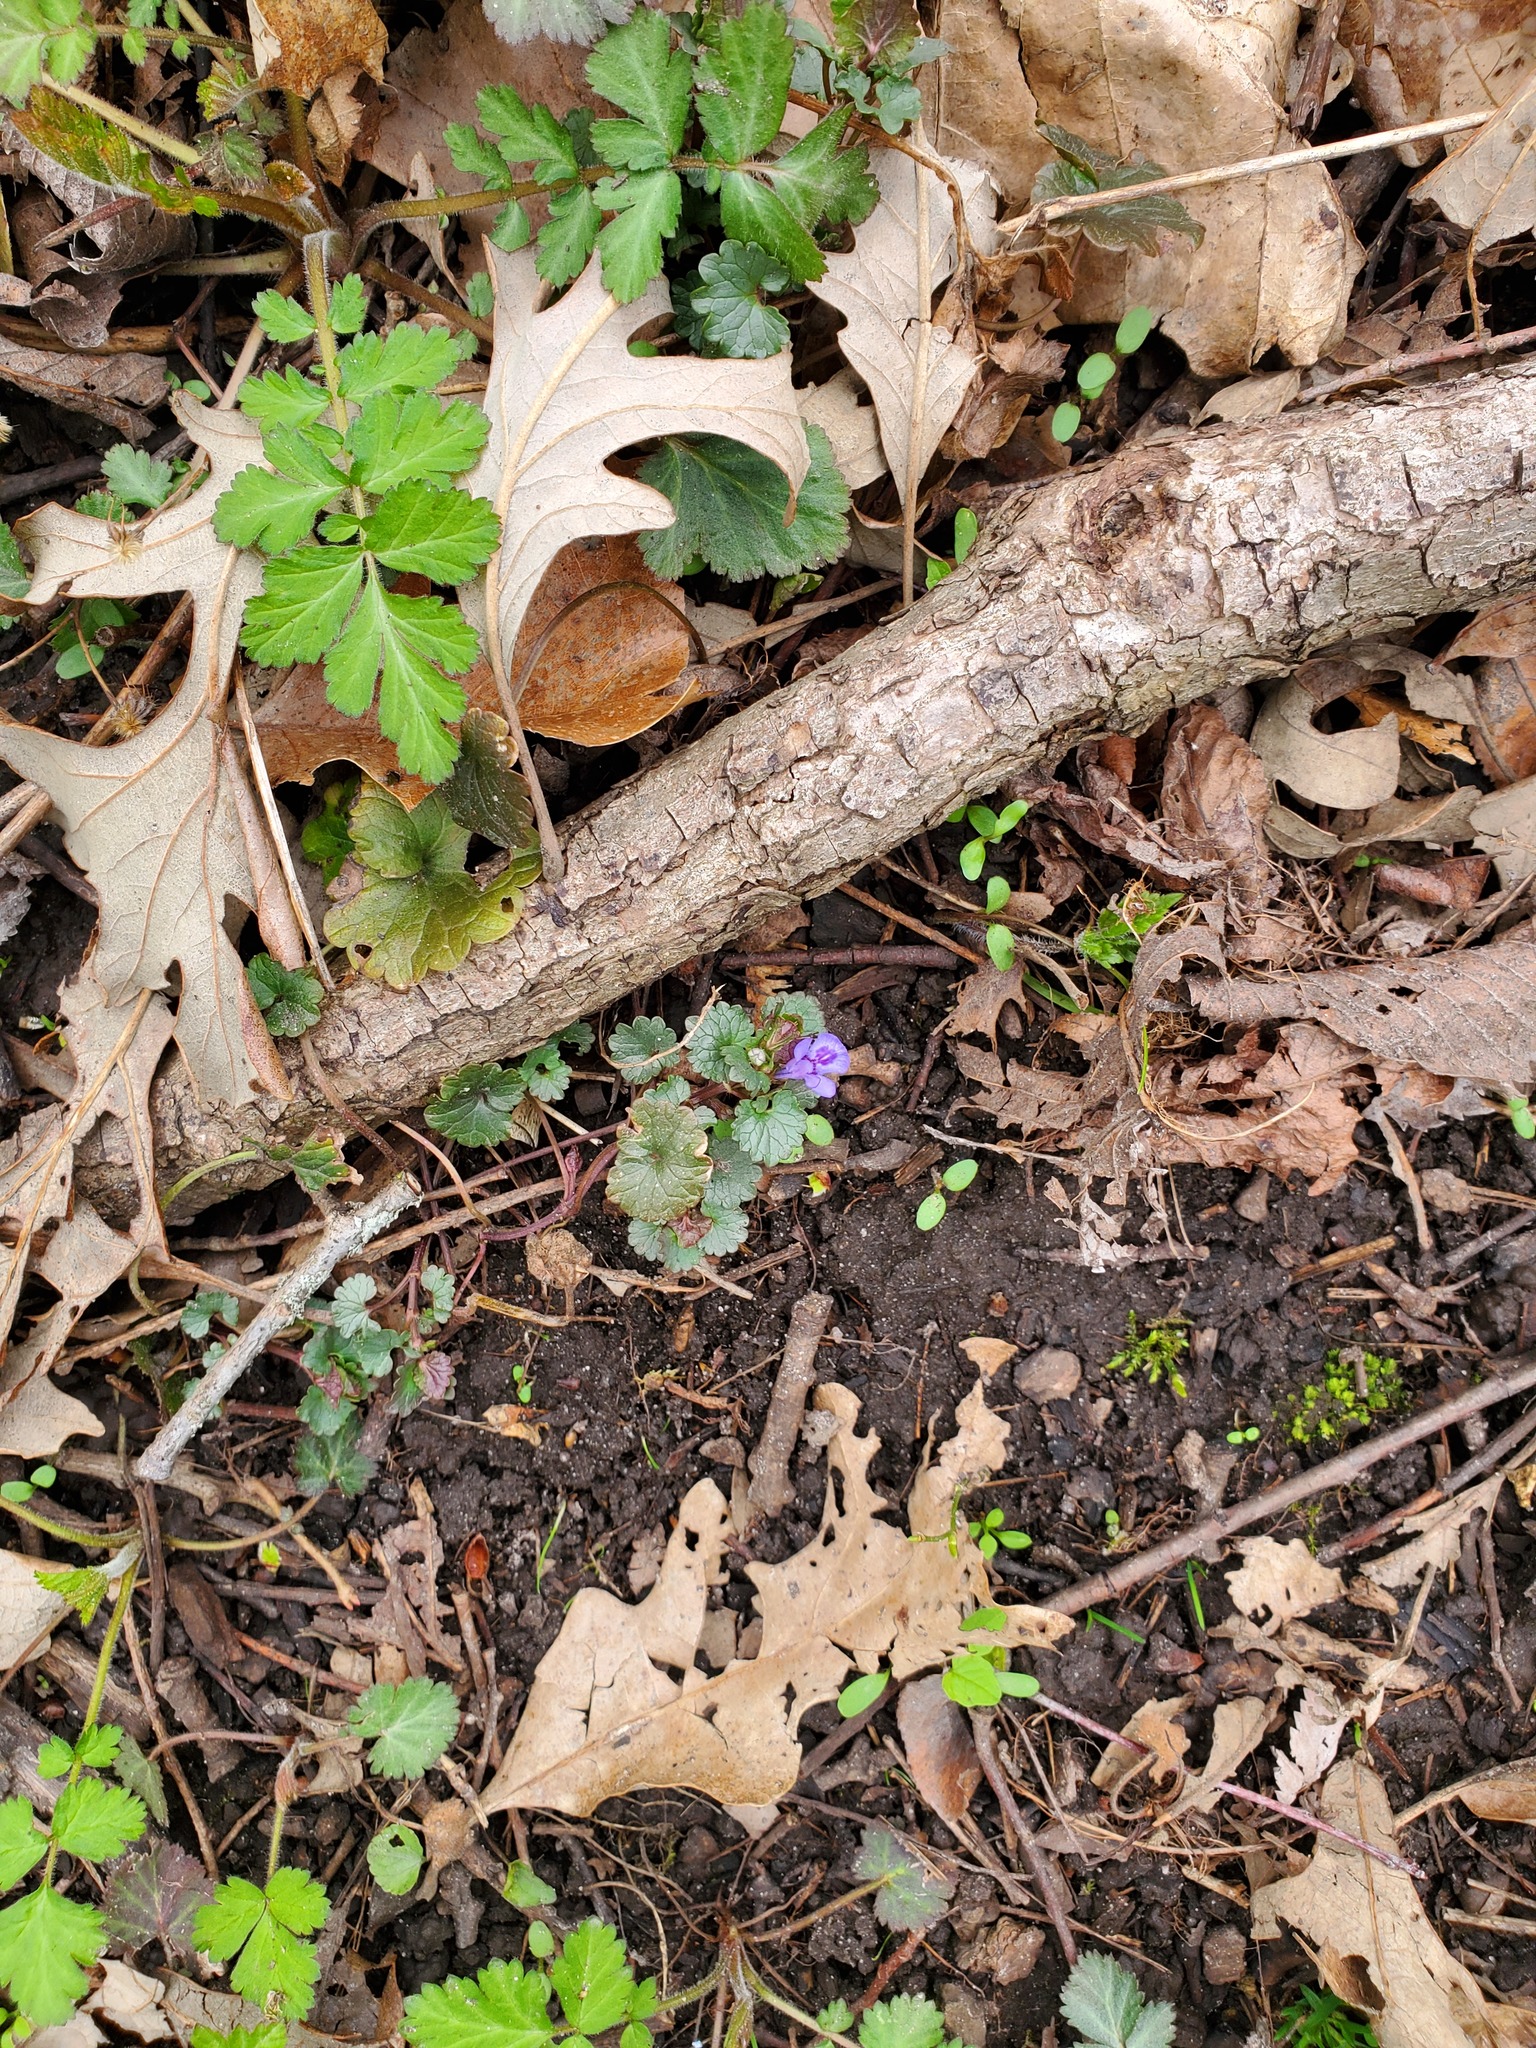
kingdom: Plantae
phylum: Tracheophyta
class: Magnoliopsida
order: Lamiales
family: Lamiaceae
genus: Glechoma
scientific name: Glechoma hederacea
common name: Ground ivy
